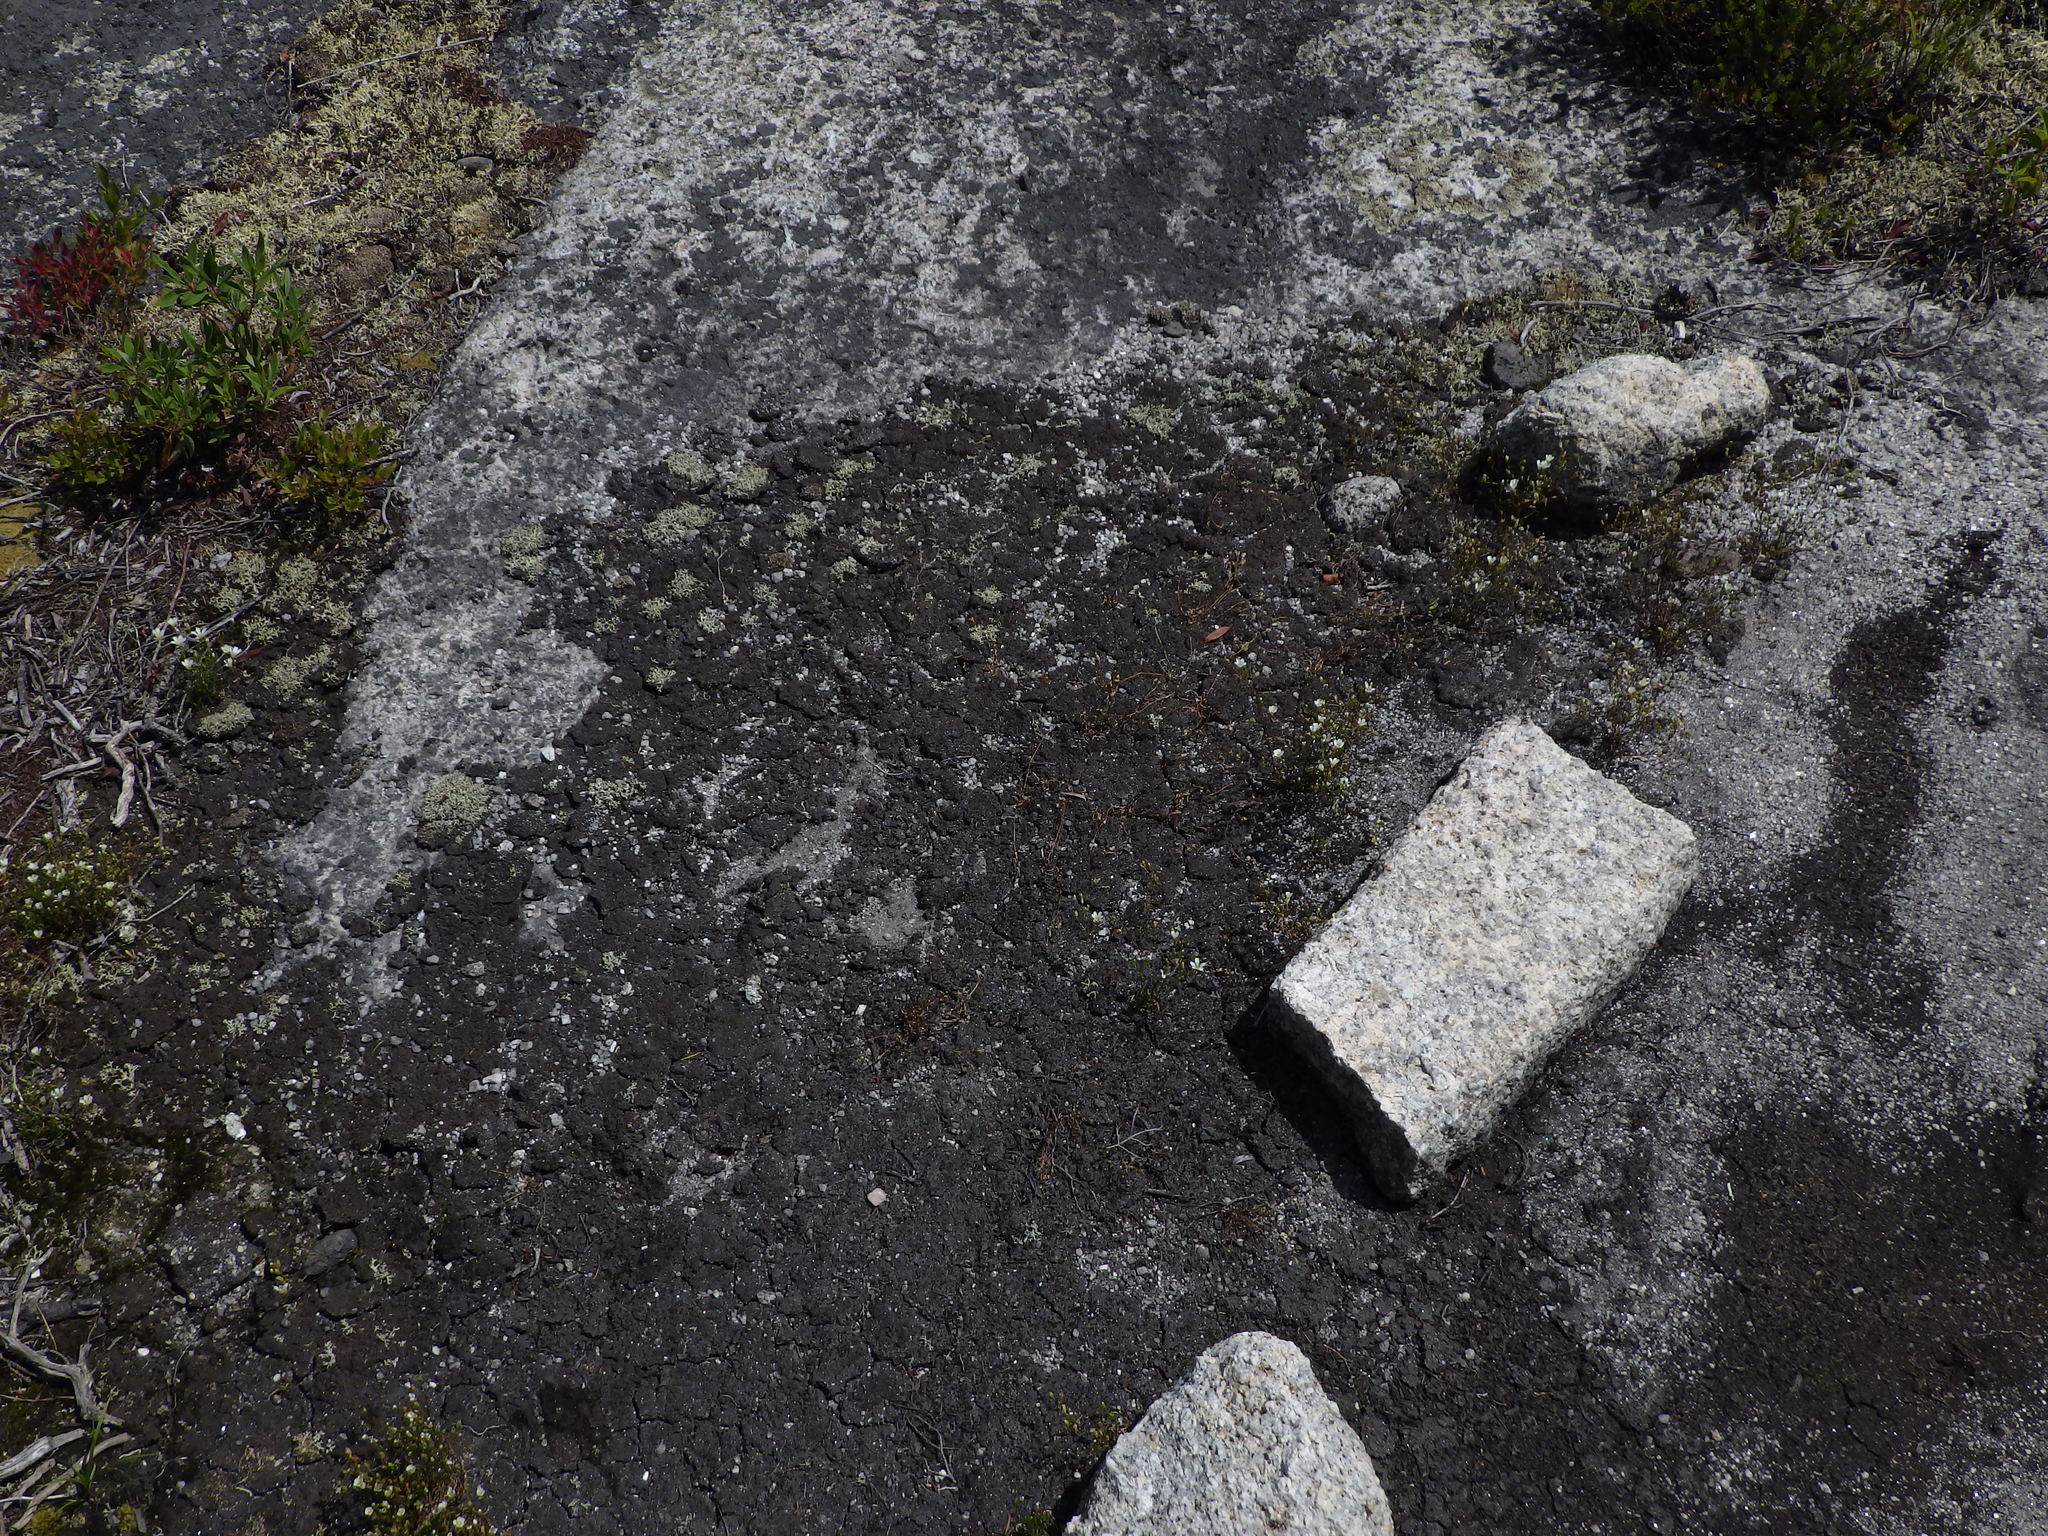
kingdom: Plantae
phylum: Tracheophyta
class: Magnoliopsida
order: Caryophyllales
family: Caryophyllaceae
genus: Geocarpon
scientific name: Geocarpon groenlandicum
